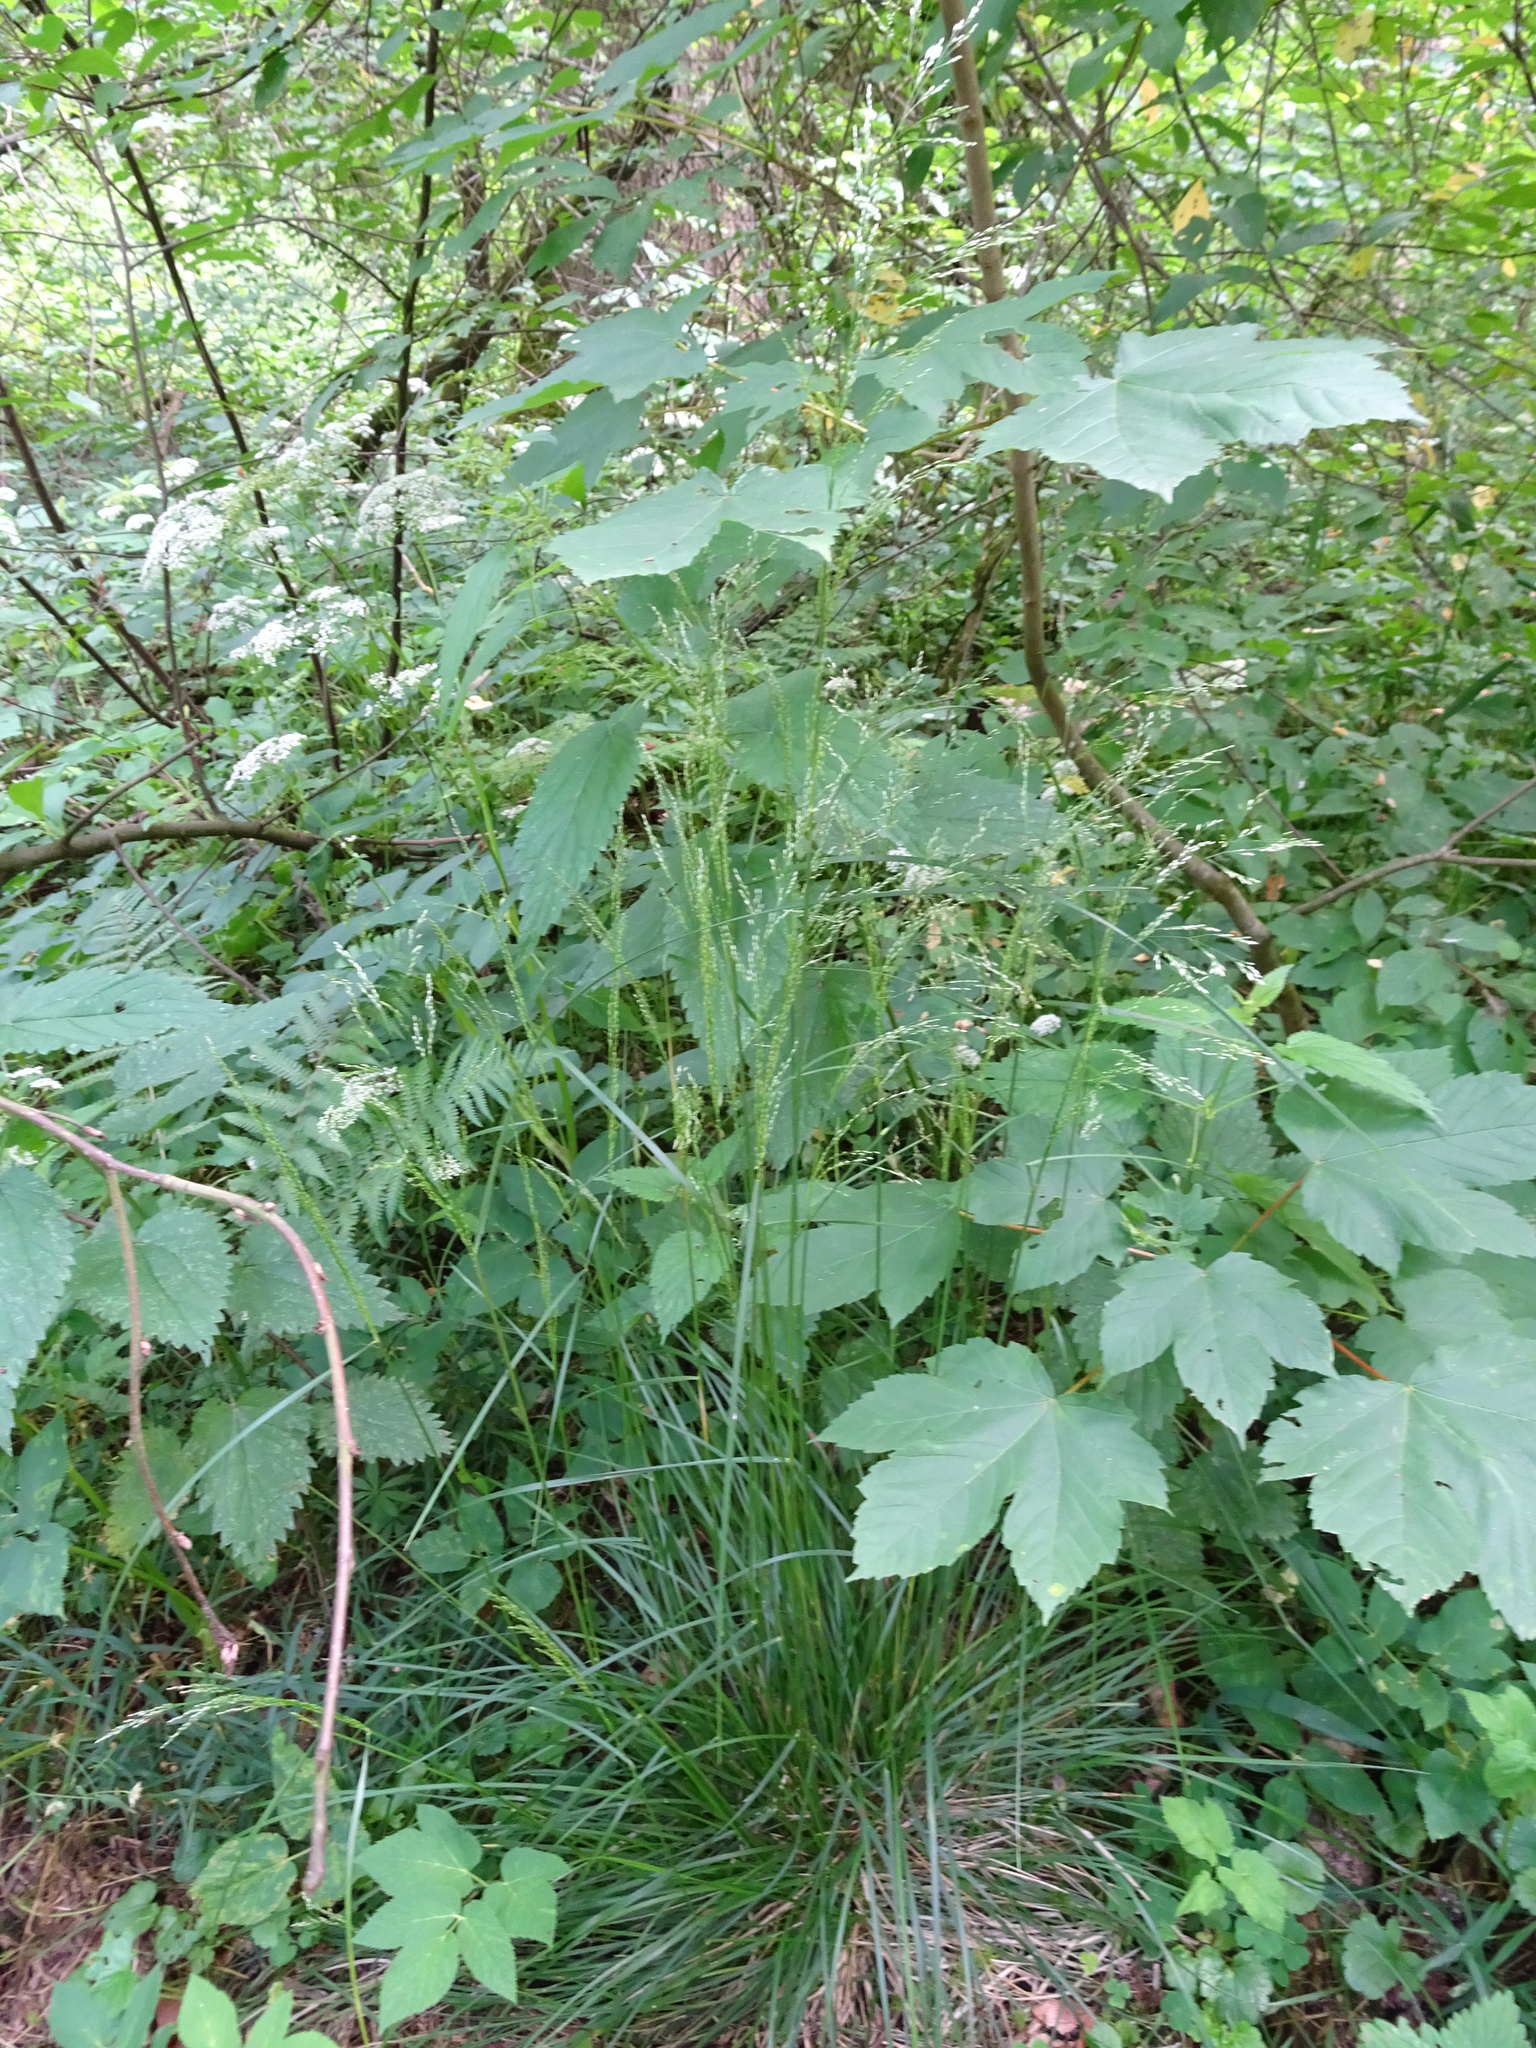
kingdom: Plantae
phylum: Tracheophyta
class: Liliopsida
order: Poales
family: Poaceae
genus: Poa
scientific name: Poa nemoralis
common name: Wood bluegrass
